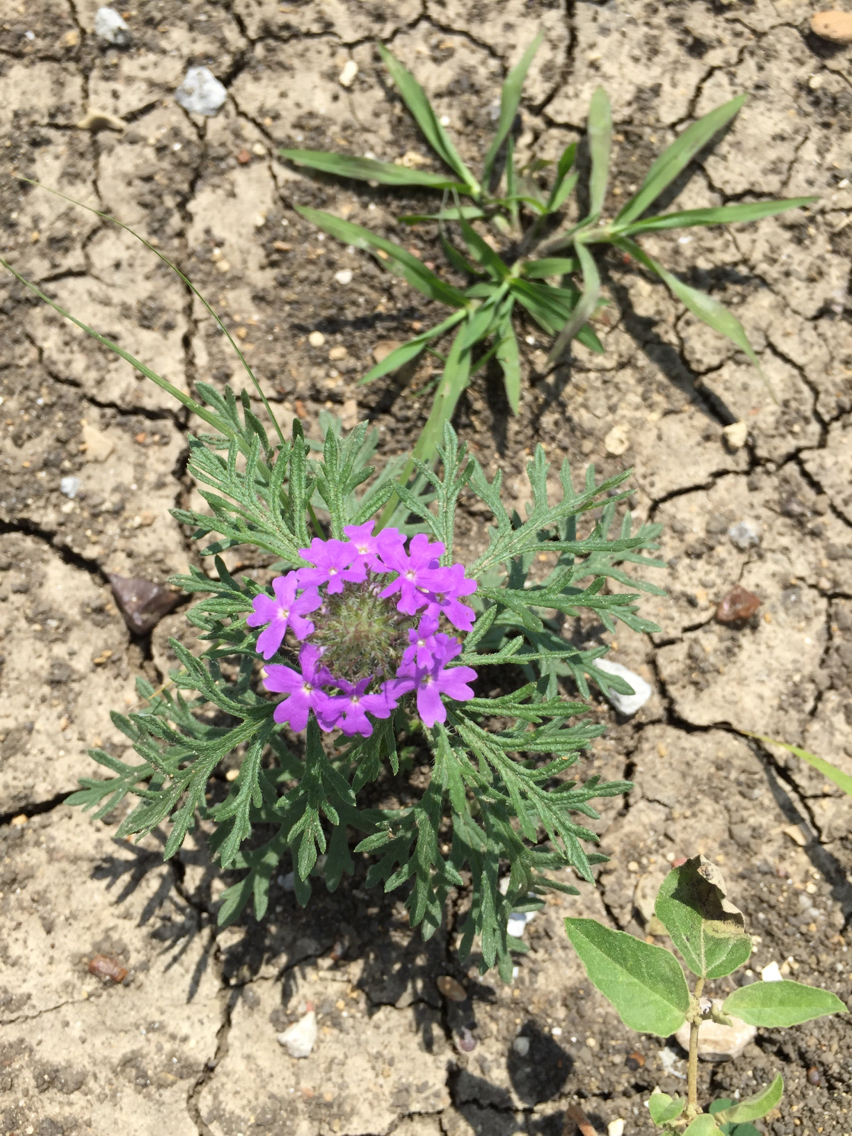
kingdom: Plantae
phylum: Tracheophyta
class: Magnoliopsida
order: Lamiales
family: Verbenaceae
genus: Verbena
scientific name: Verbena bipinnatifida
